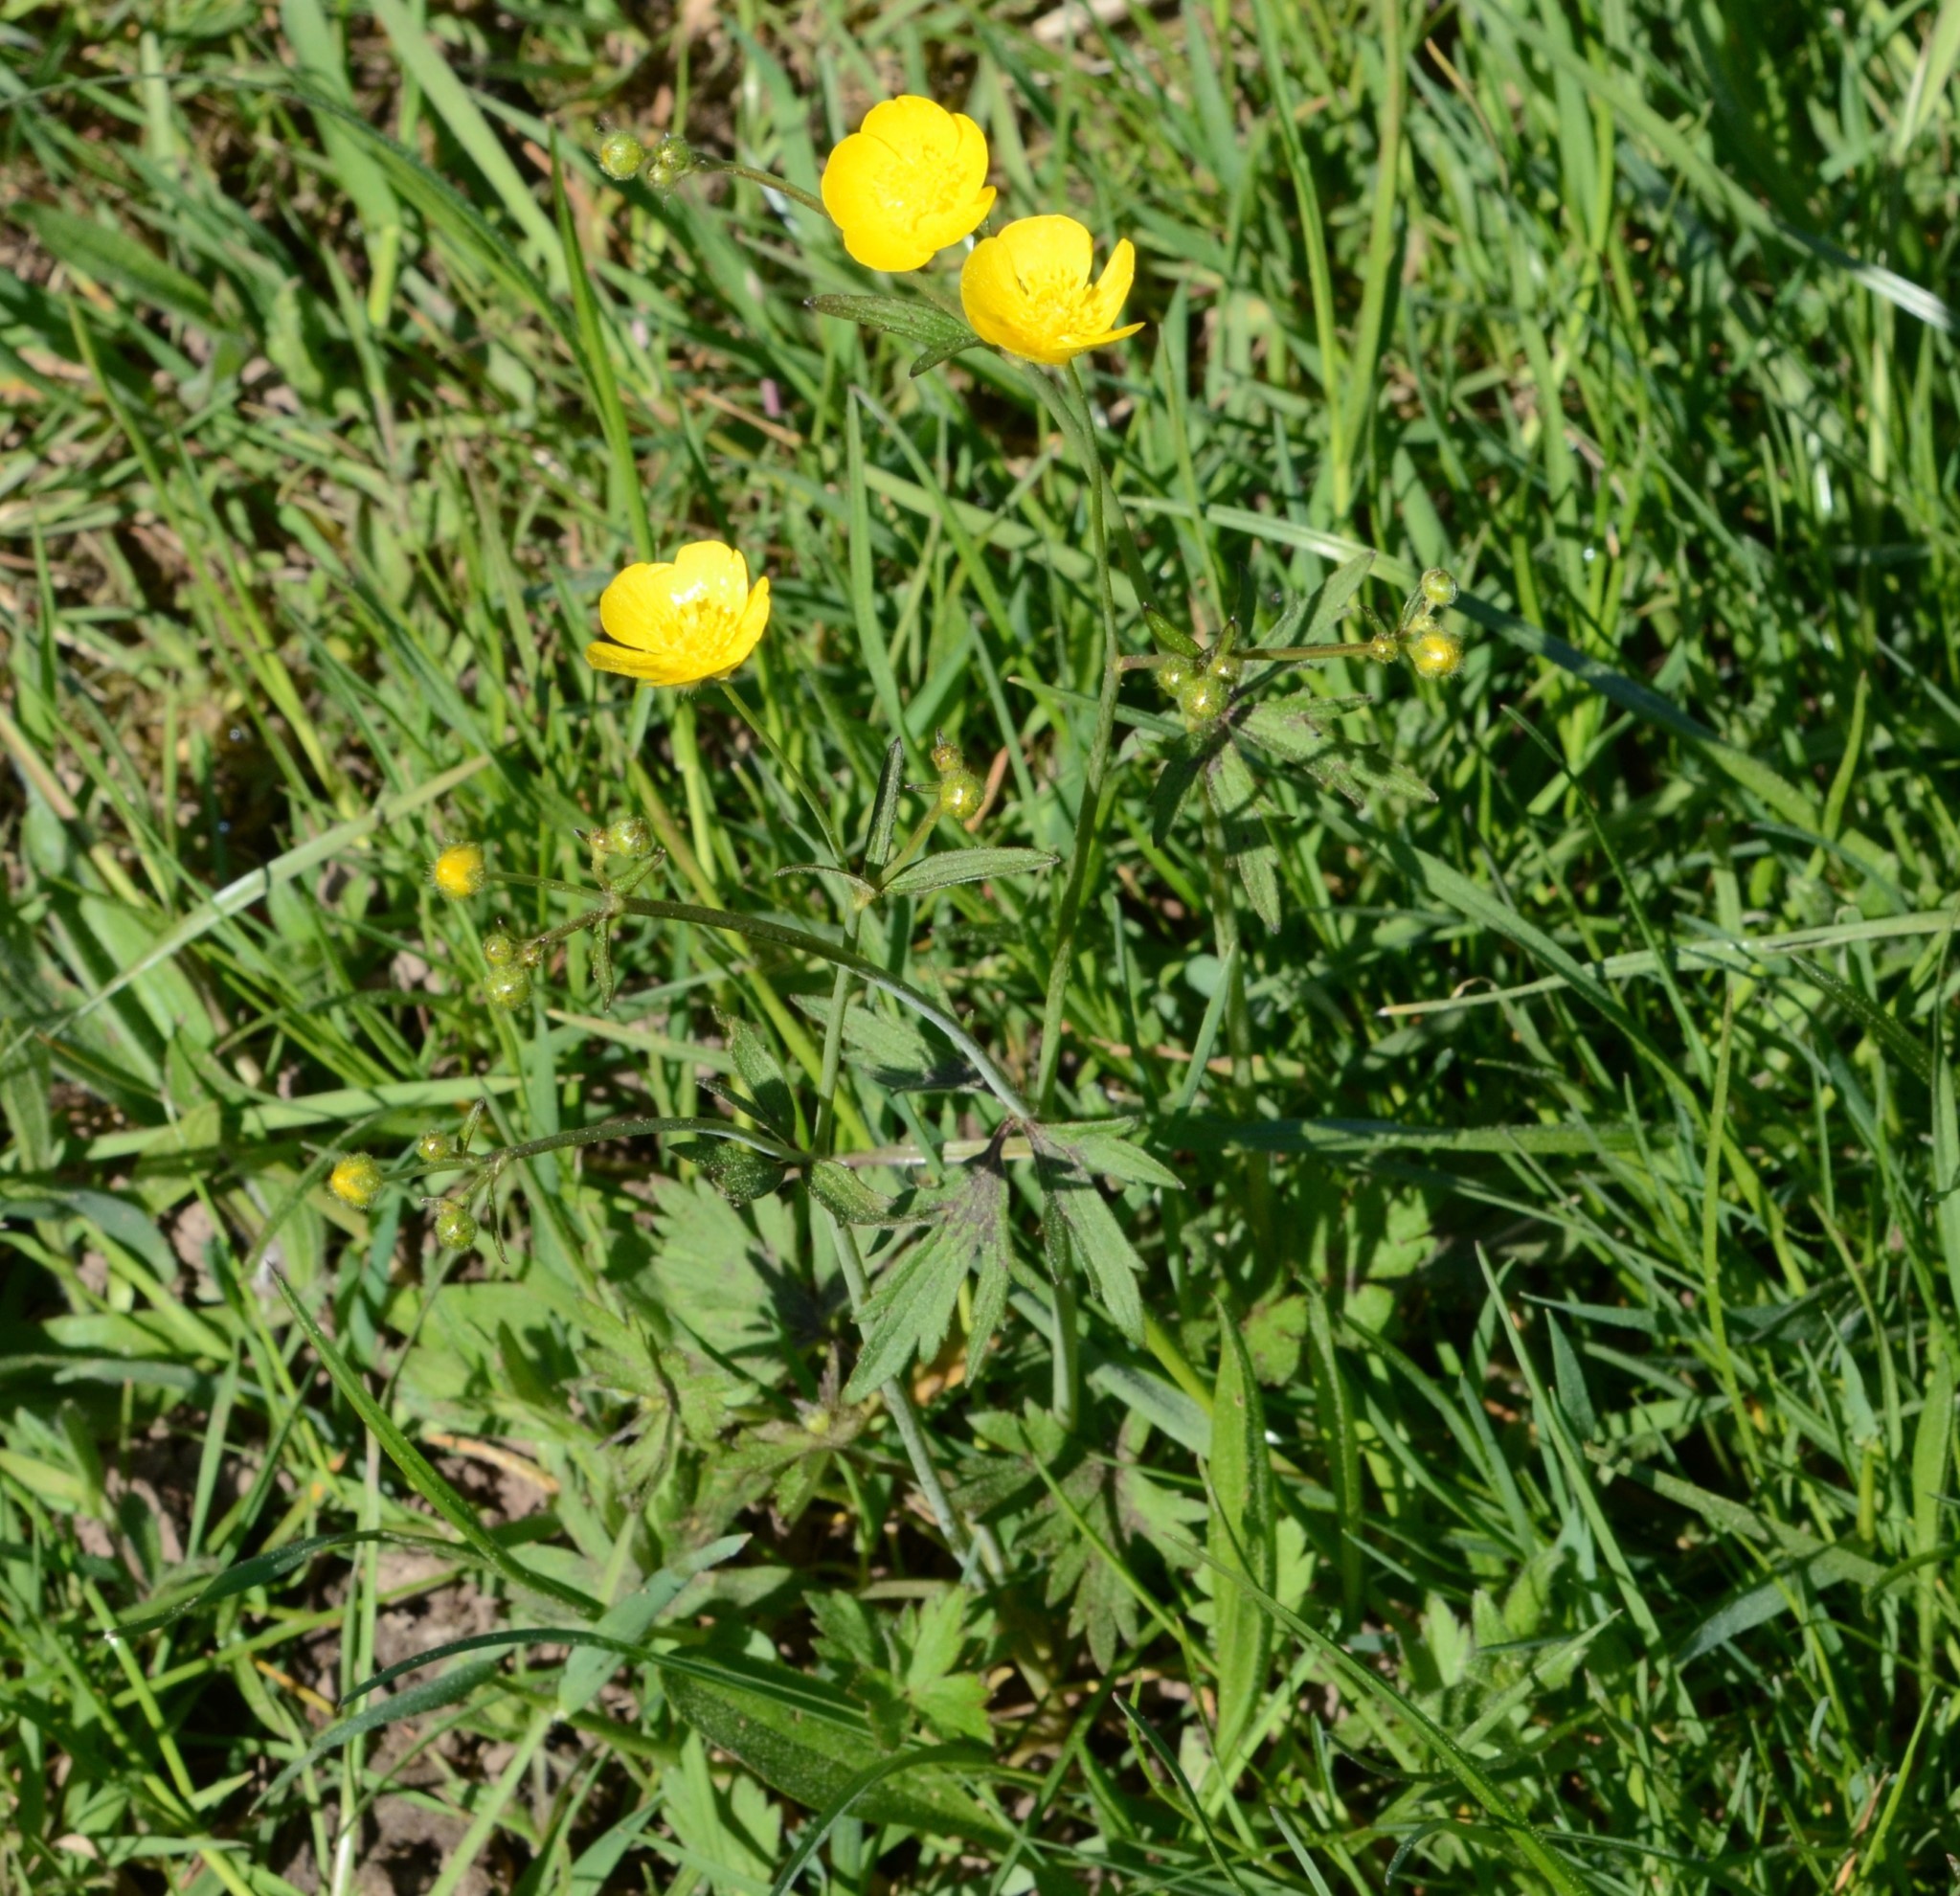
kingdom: Plantae
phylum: Tracheophyta
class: Magnoliopsida
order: Ranunculales
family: Ranunculaceae
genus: Ranunculus
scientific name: Ranunculus acris
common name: Meadow buttercup
